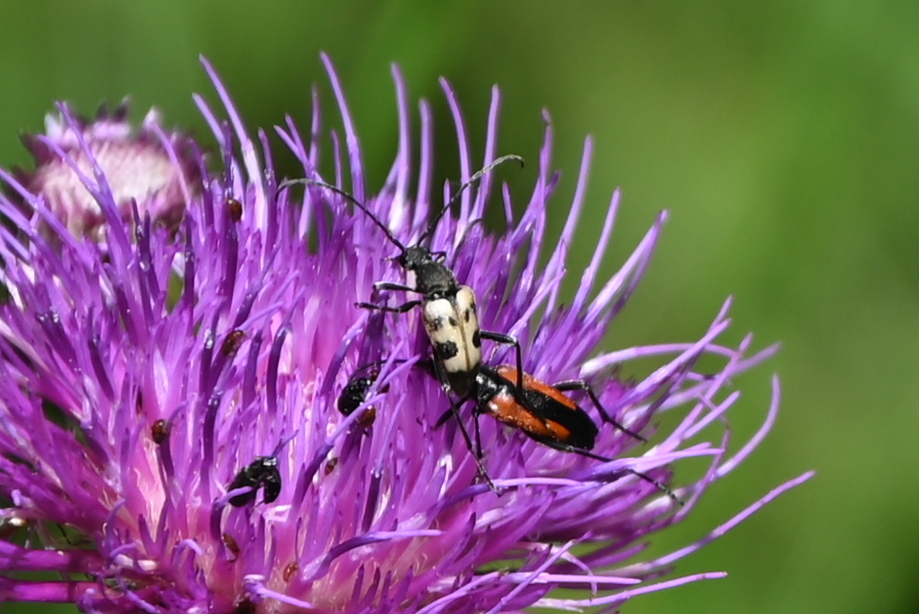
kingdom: Animalia
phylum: Arthropoda
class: Insecta
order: Coleoptera
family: Cerambycidae
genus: Pachytodes
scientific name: Pachytodes cerambyciformis
